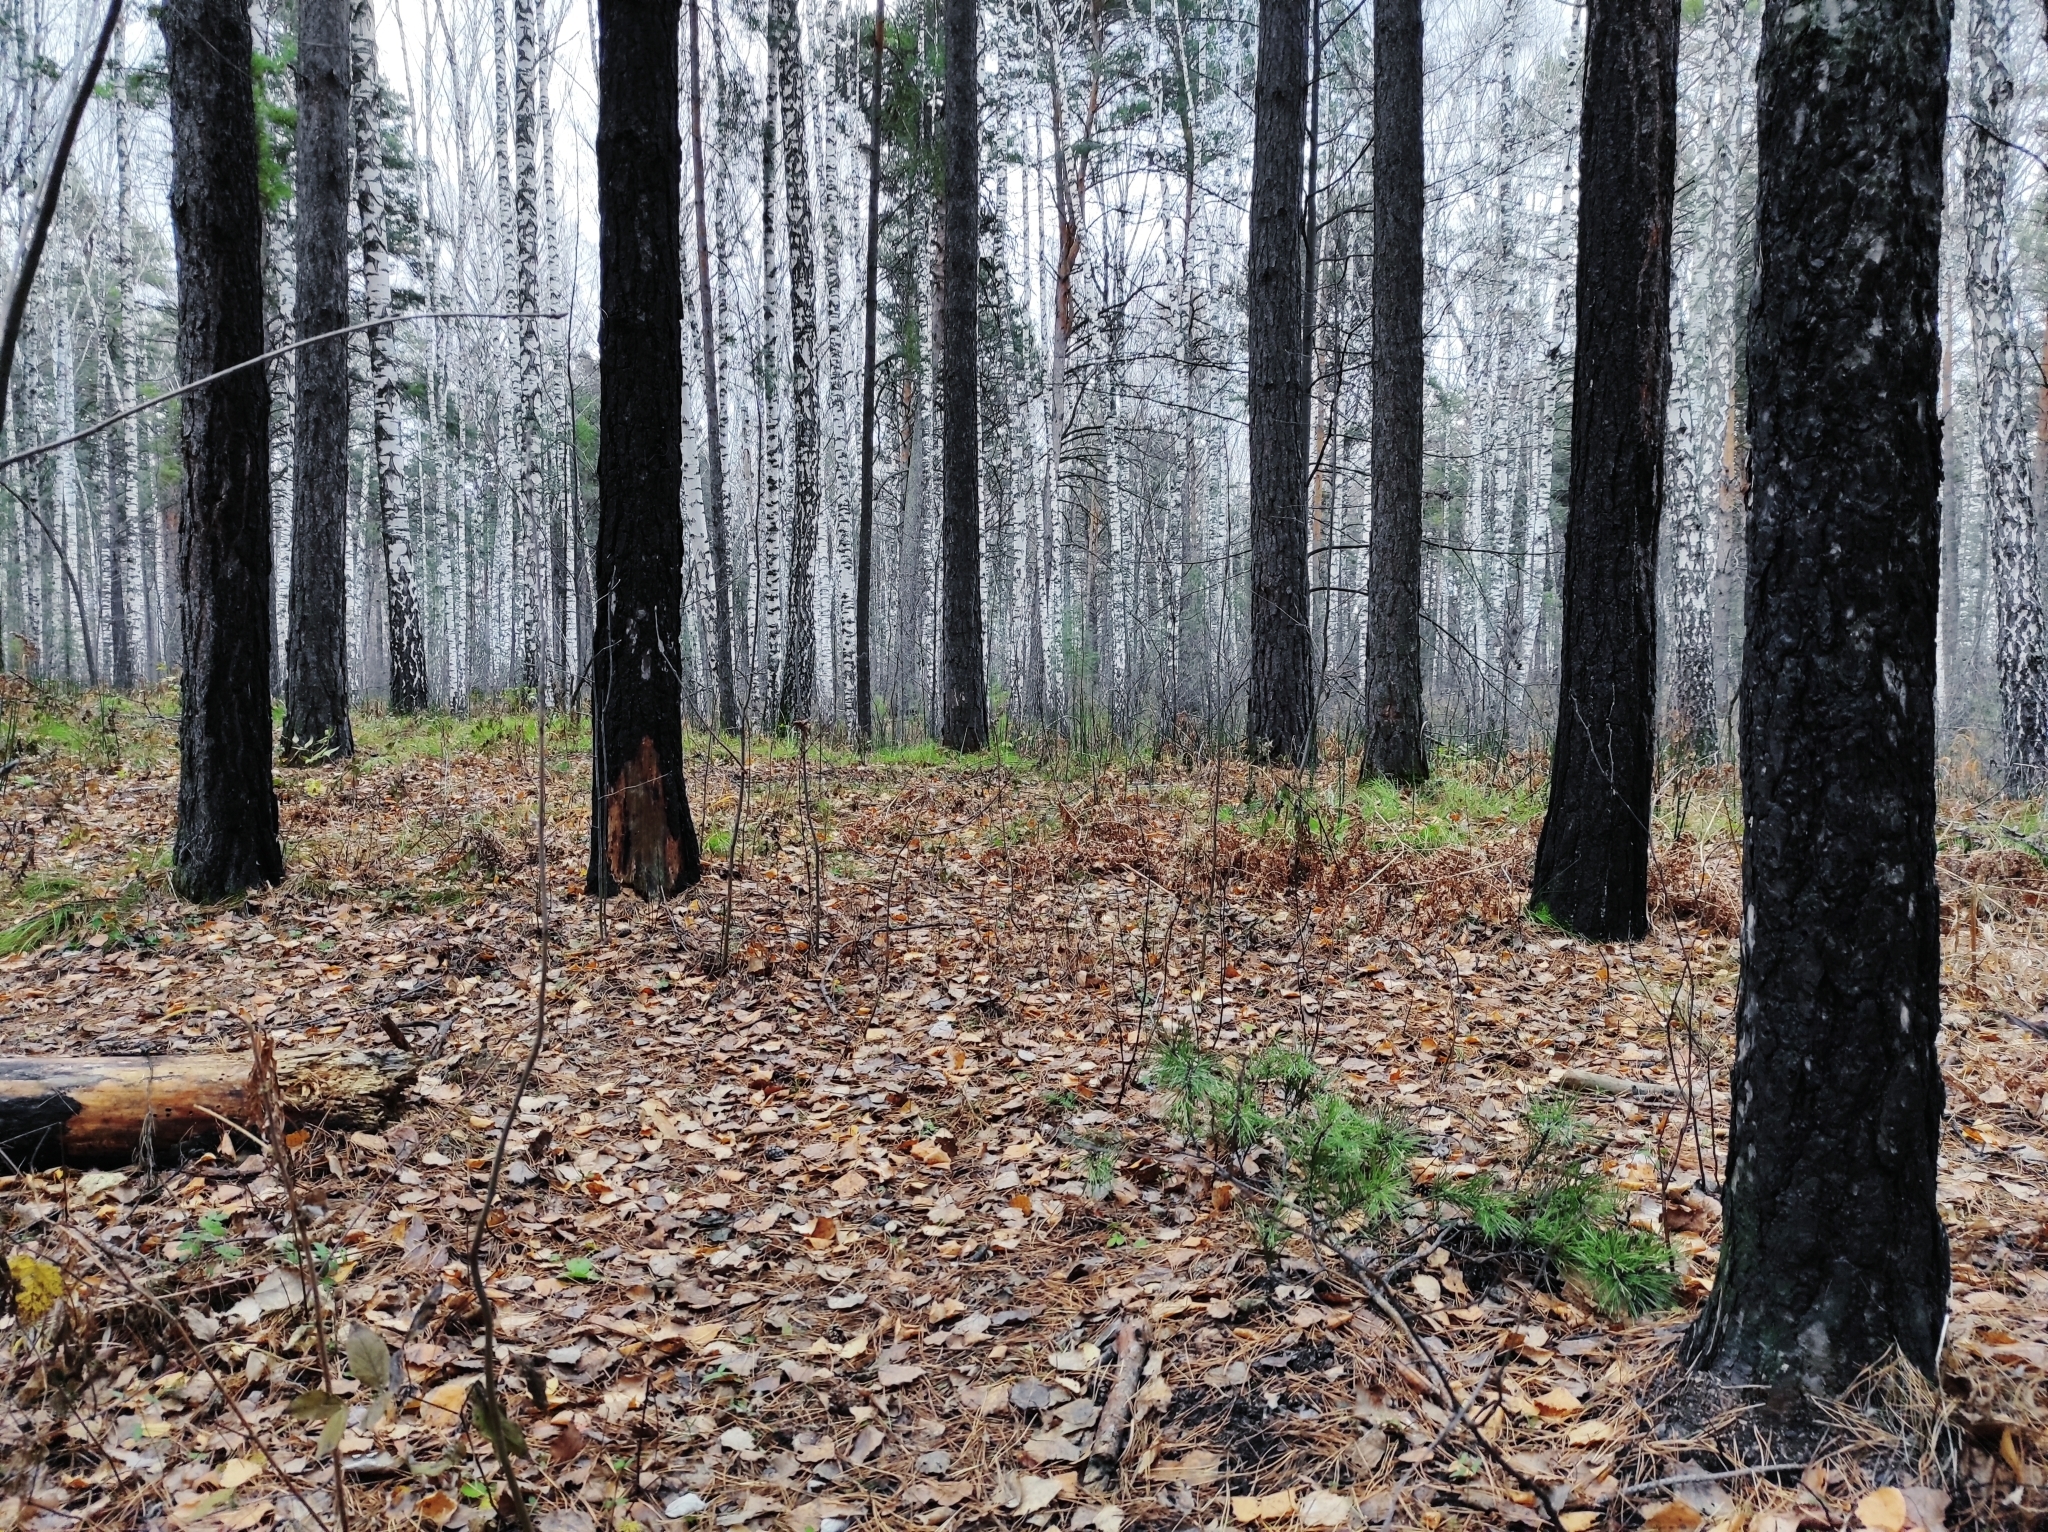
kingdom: Fungi
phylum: Basidiomycota
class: Agaricomycetes
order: Polyporales
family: Fomitopsidaceae
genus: Fomitopsis
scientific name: Fomitopsis pinicola
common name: Red-belted bracket
